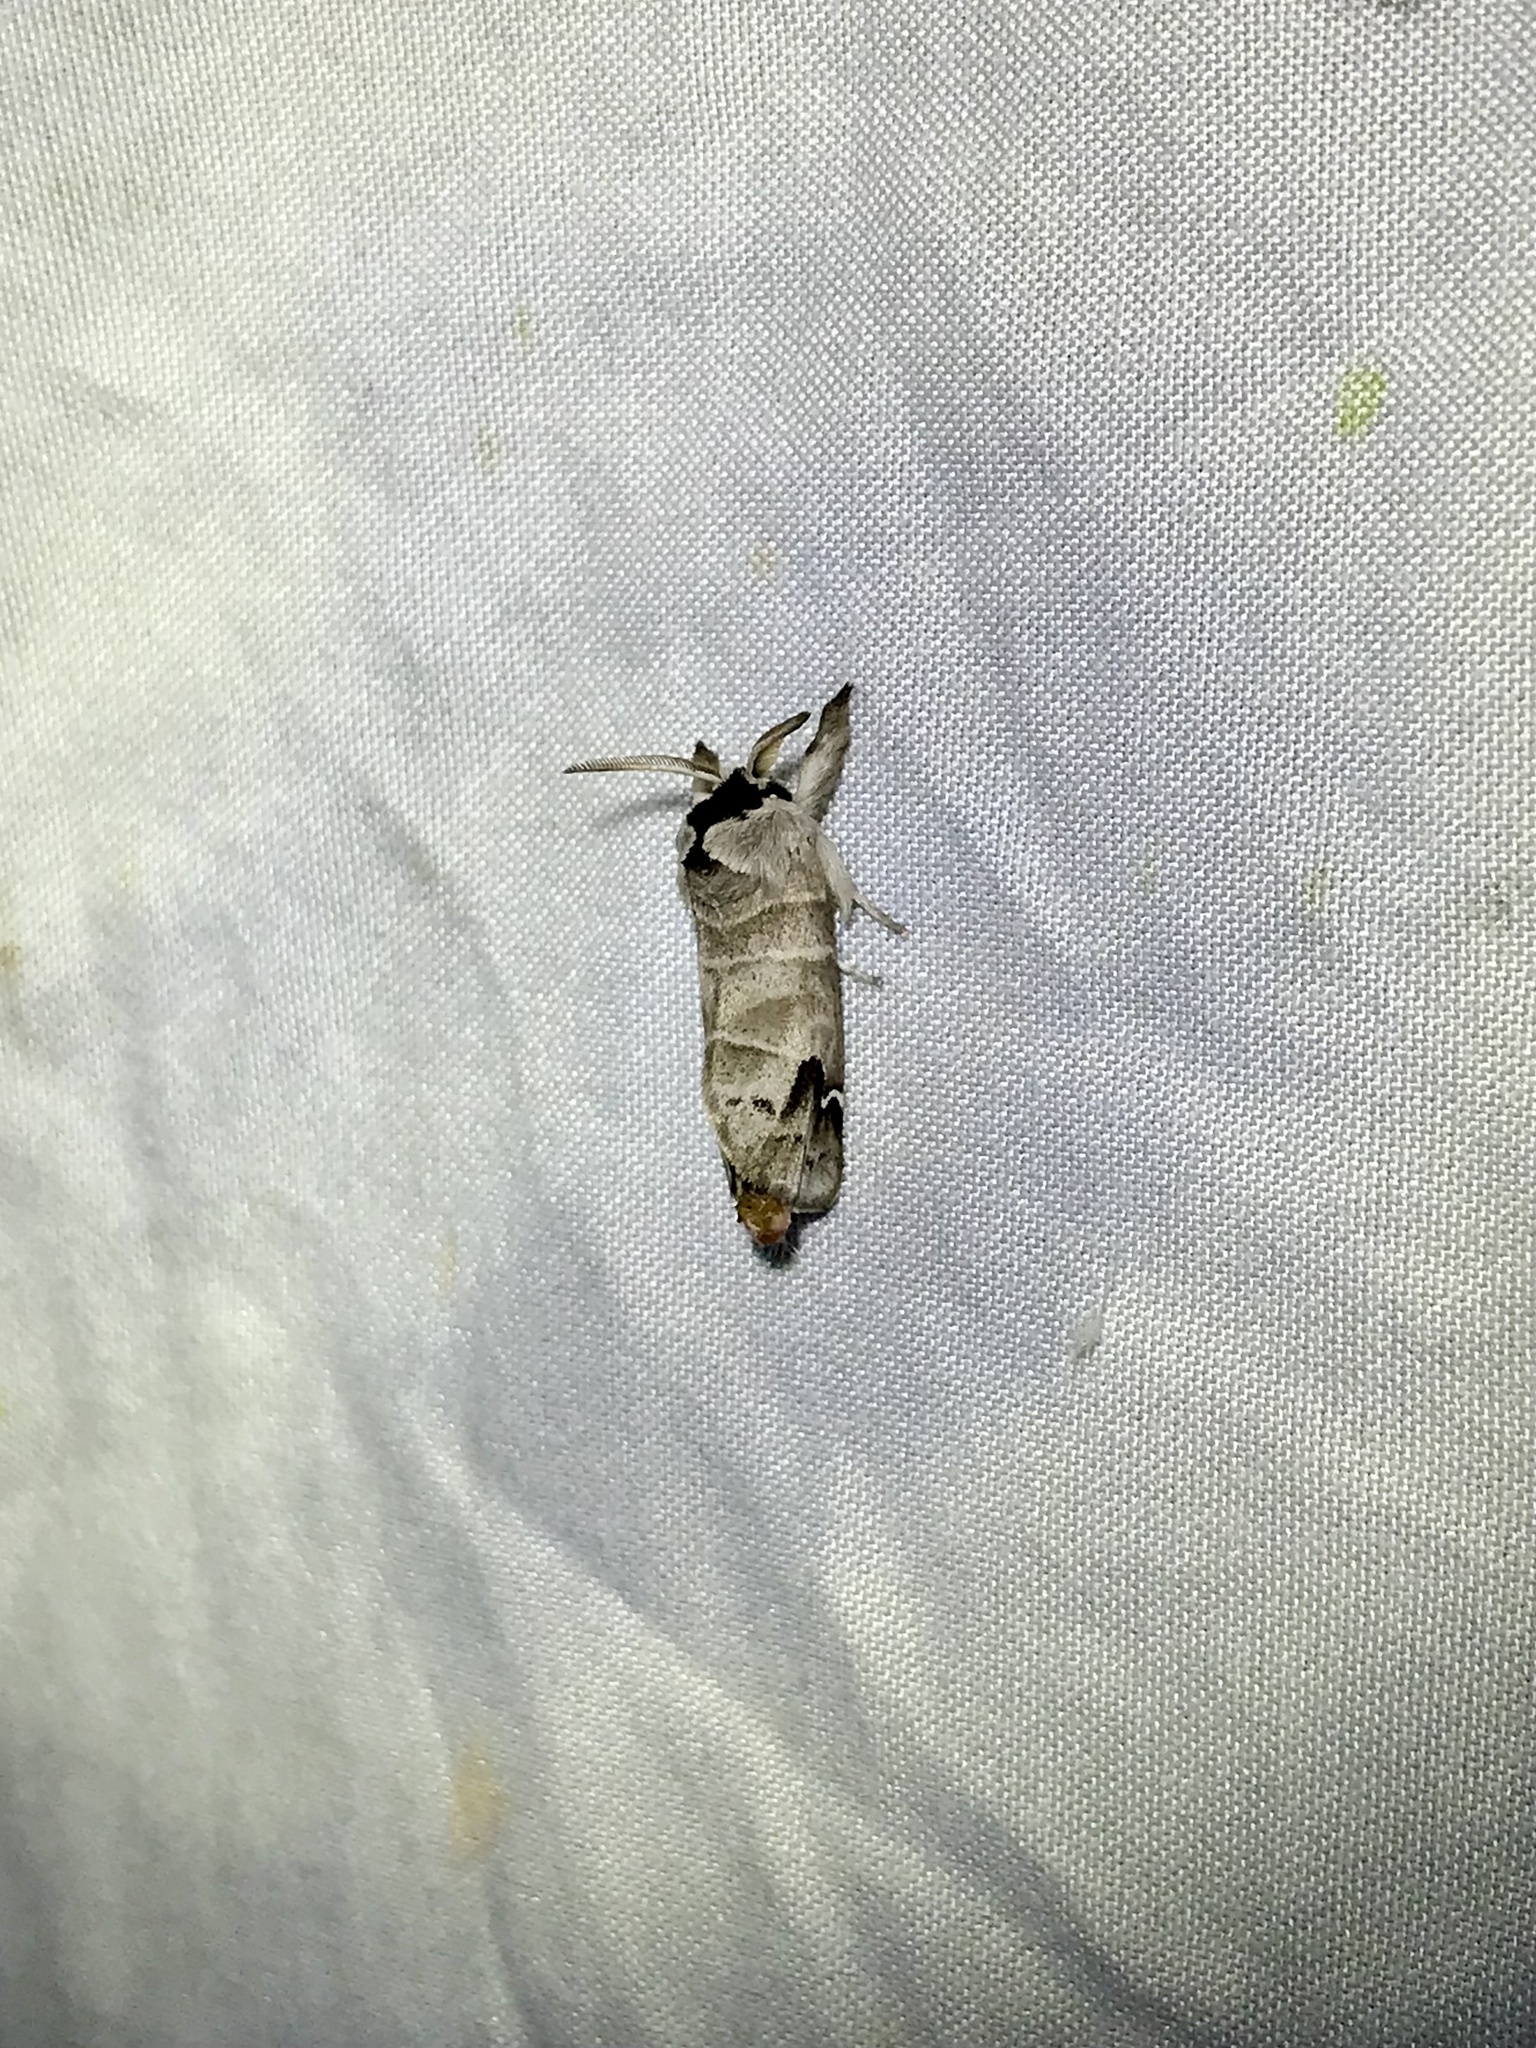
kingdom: Animalia
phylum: Arthropoda
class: Insecta
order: Lepidoptera
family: Notodontidae
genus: Clostera
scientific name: Clostera albosigma
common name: Sigmoid prominent
